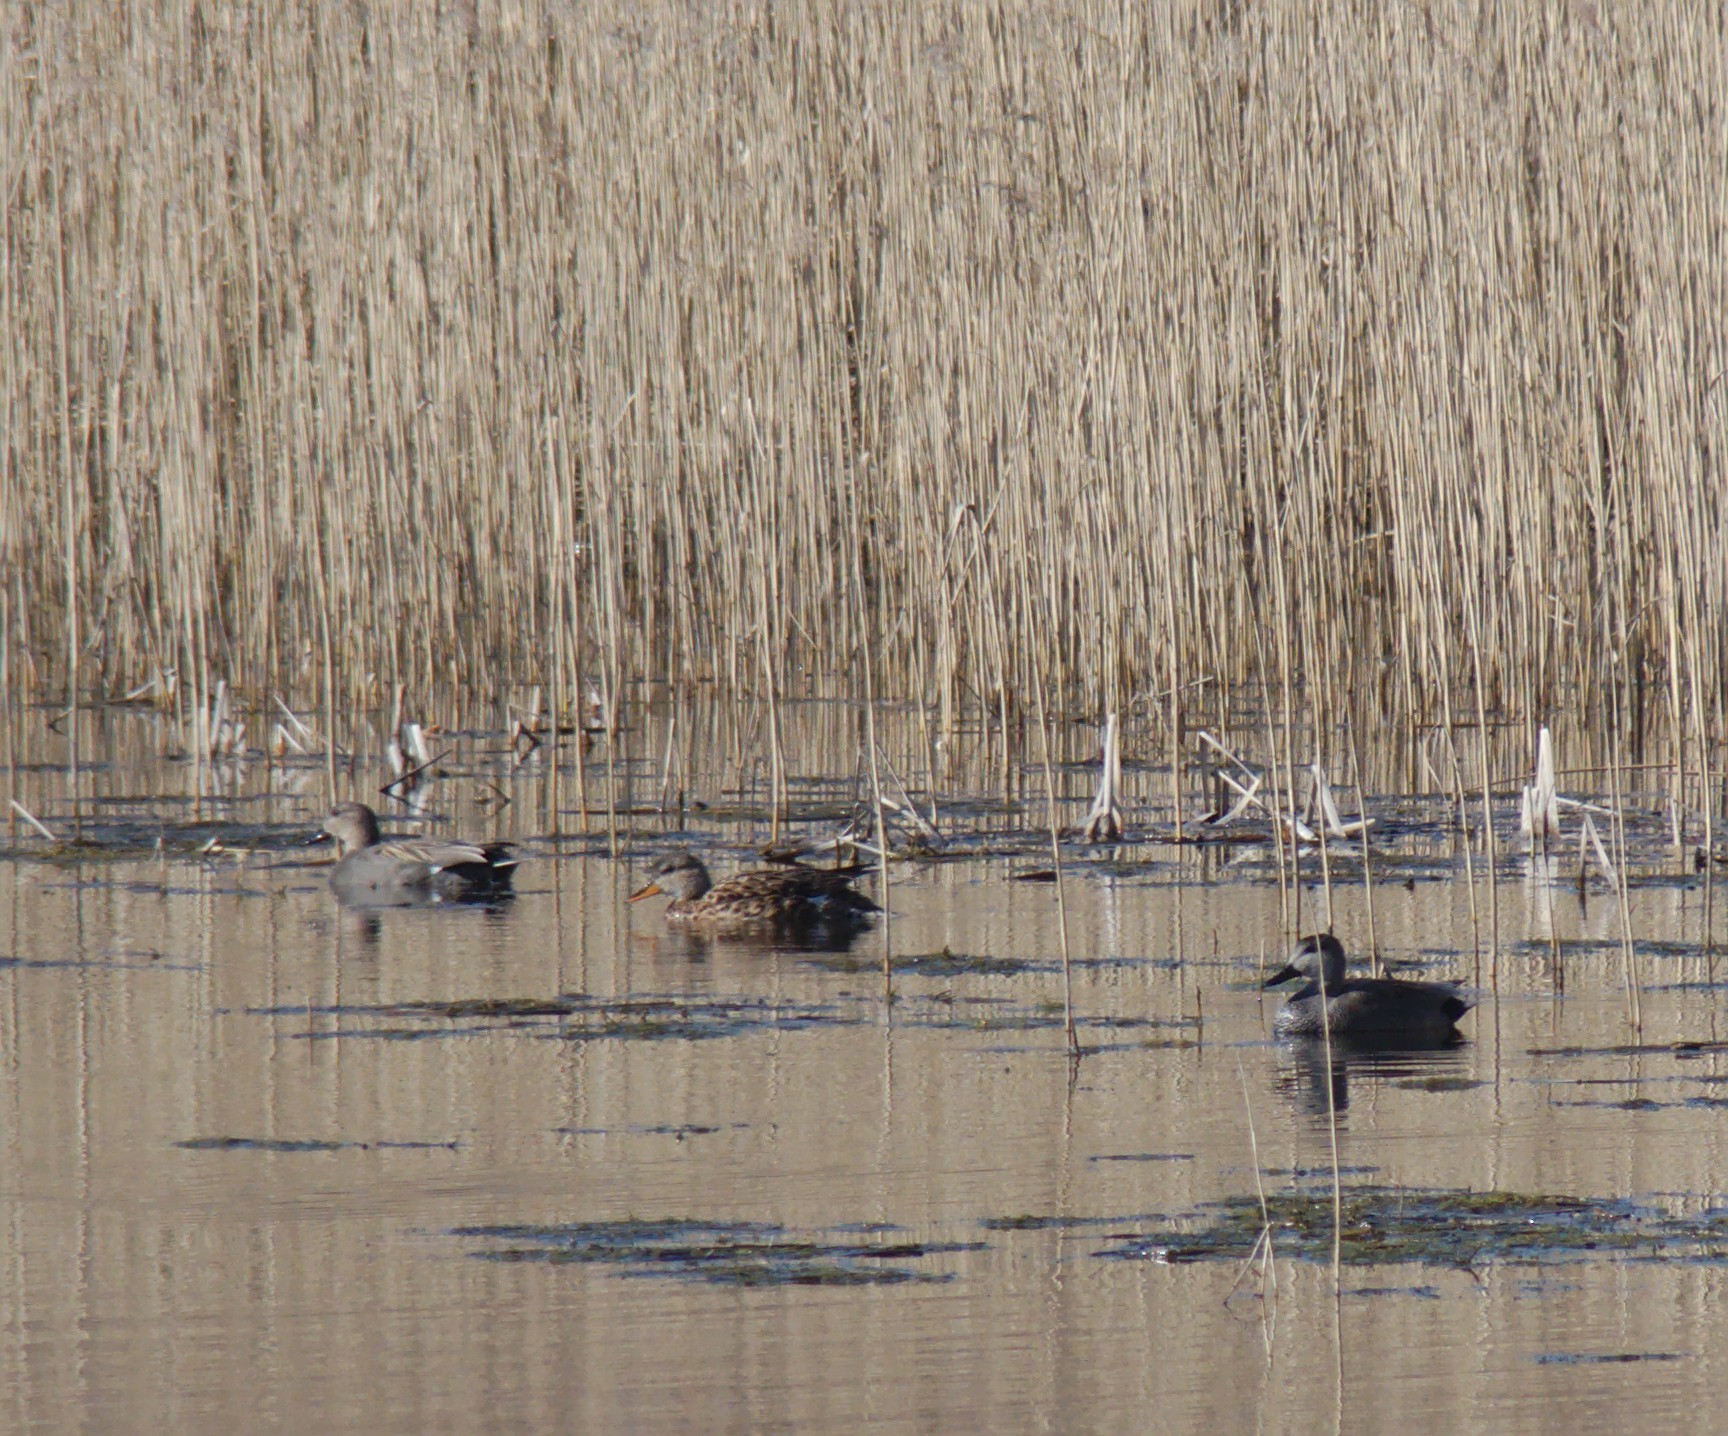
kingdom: Animalia
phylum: Chordata
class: Aves
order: Anseriformes
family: Anatidae
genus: Mareca
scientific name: Mareca strepera
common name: Gadwall
